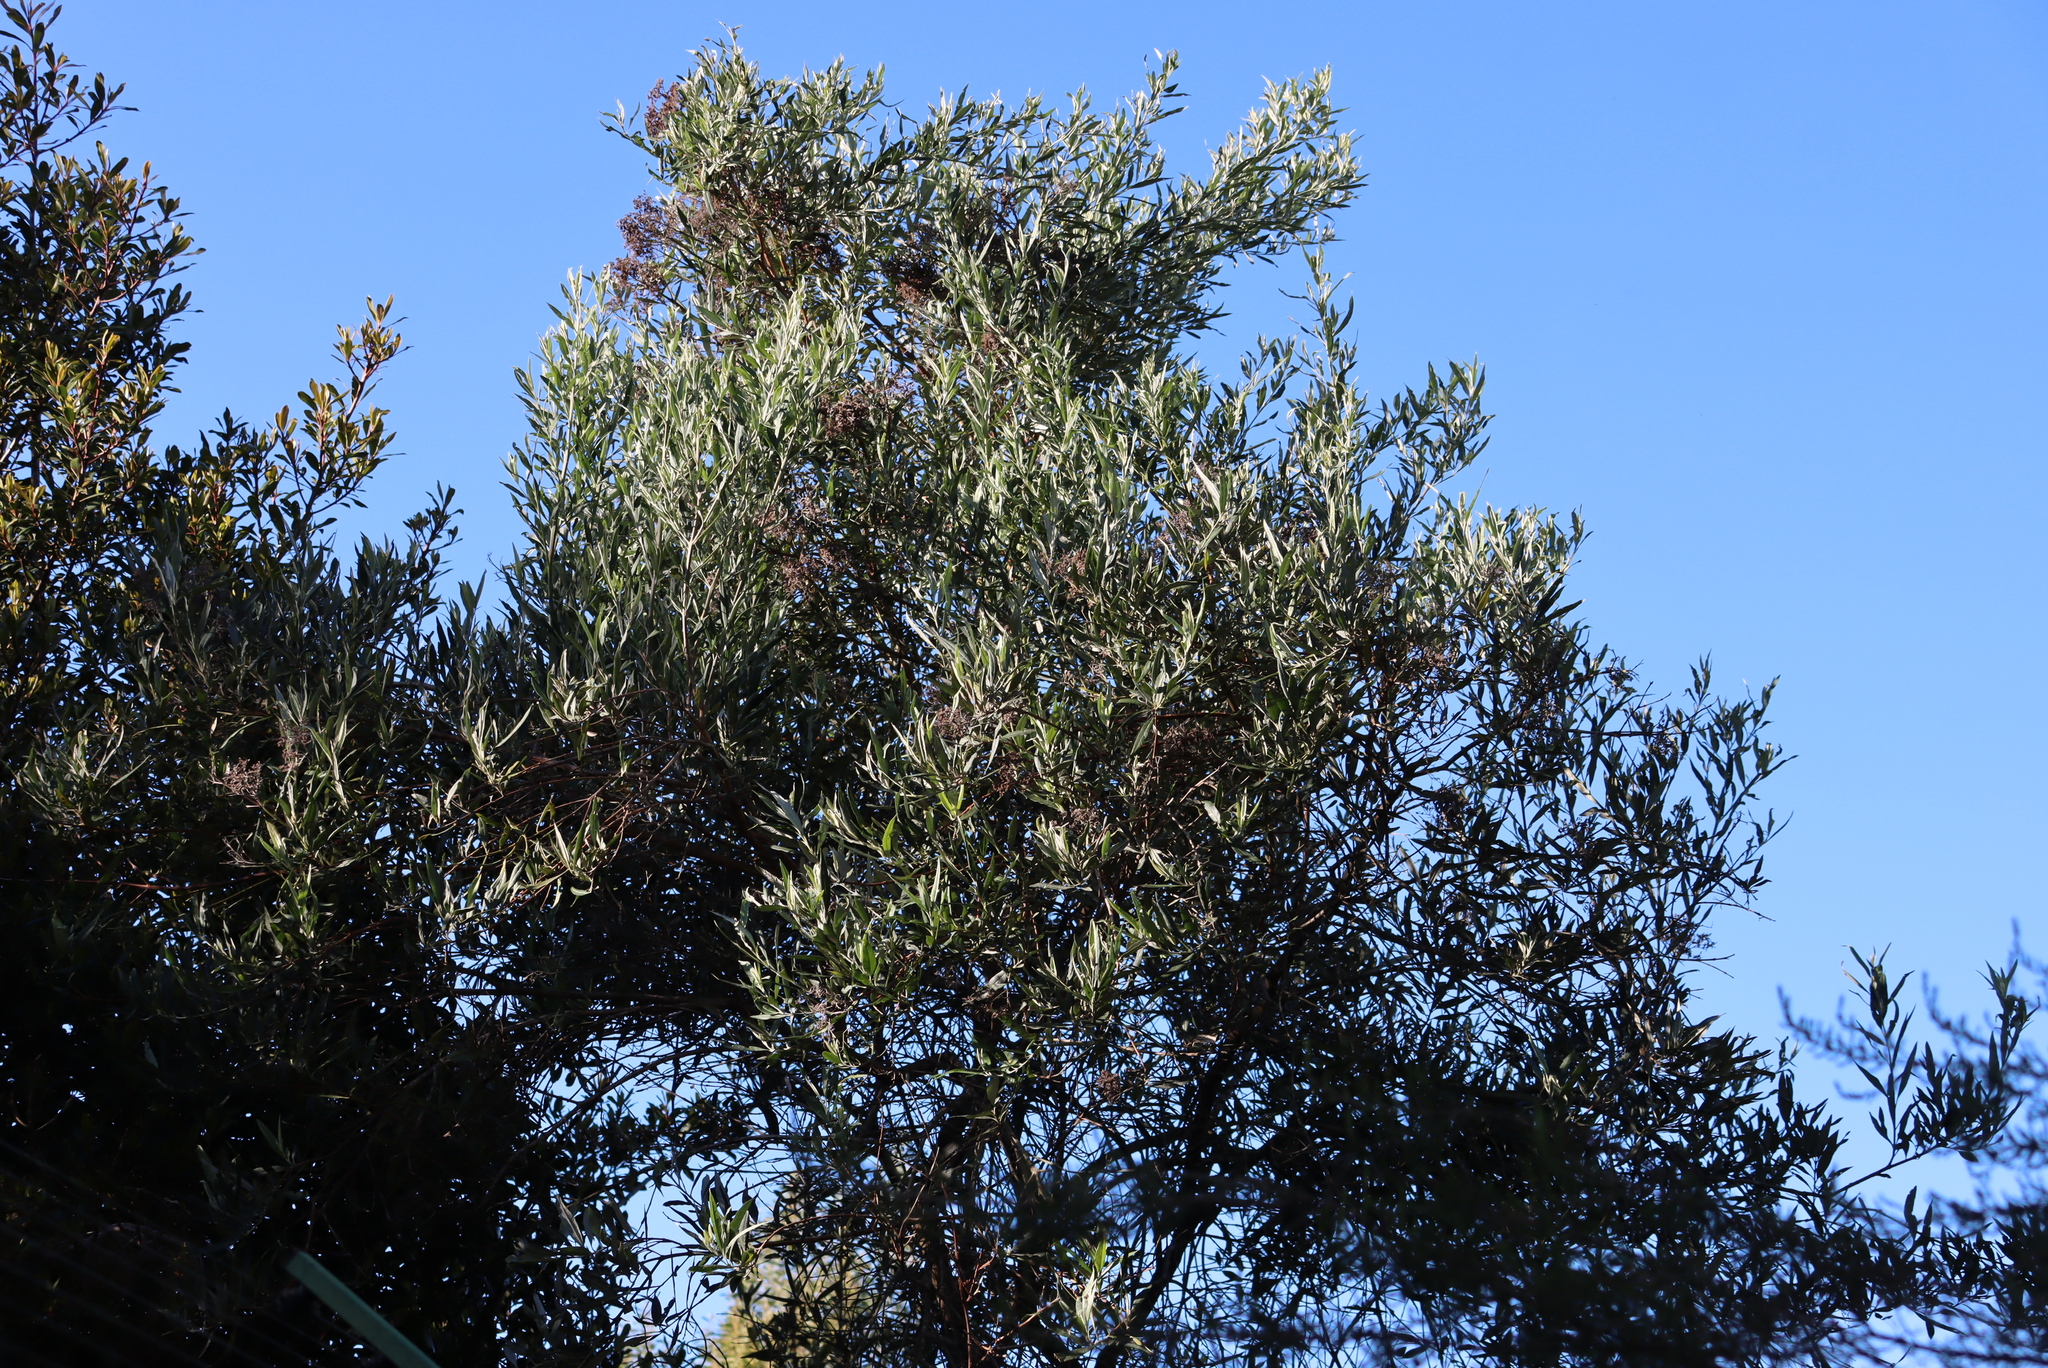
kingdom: Plantae
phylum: Tracheophyta
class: Magnoliopsida
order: Lamiales
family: Scrophulariaceae
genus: Buddleja
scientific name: Buddleja saligna
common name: False olive
